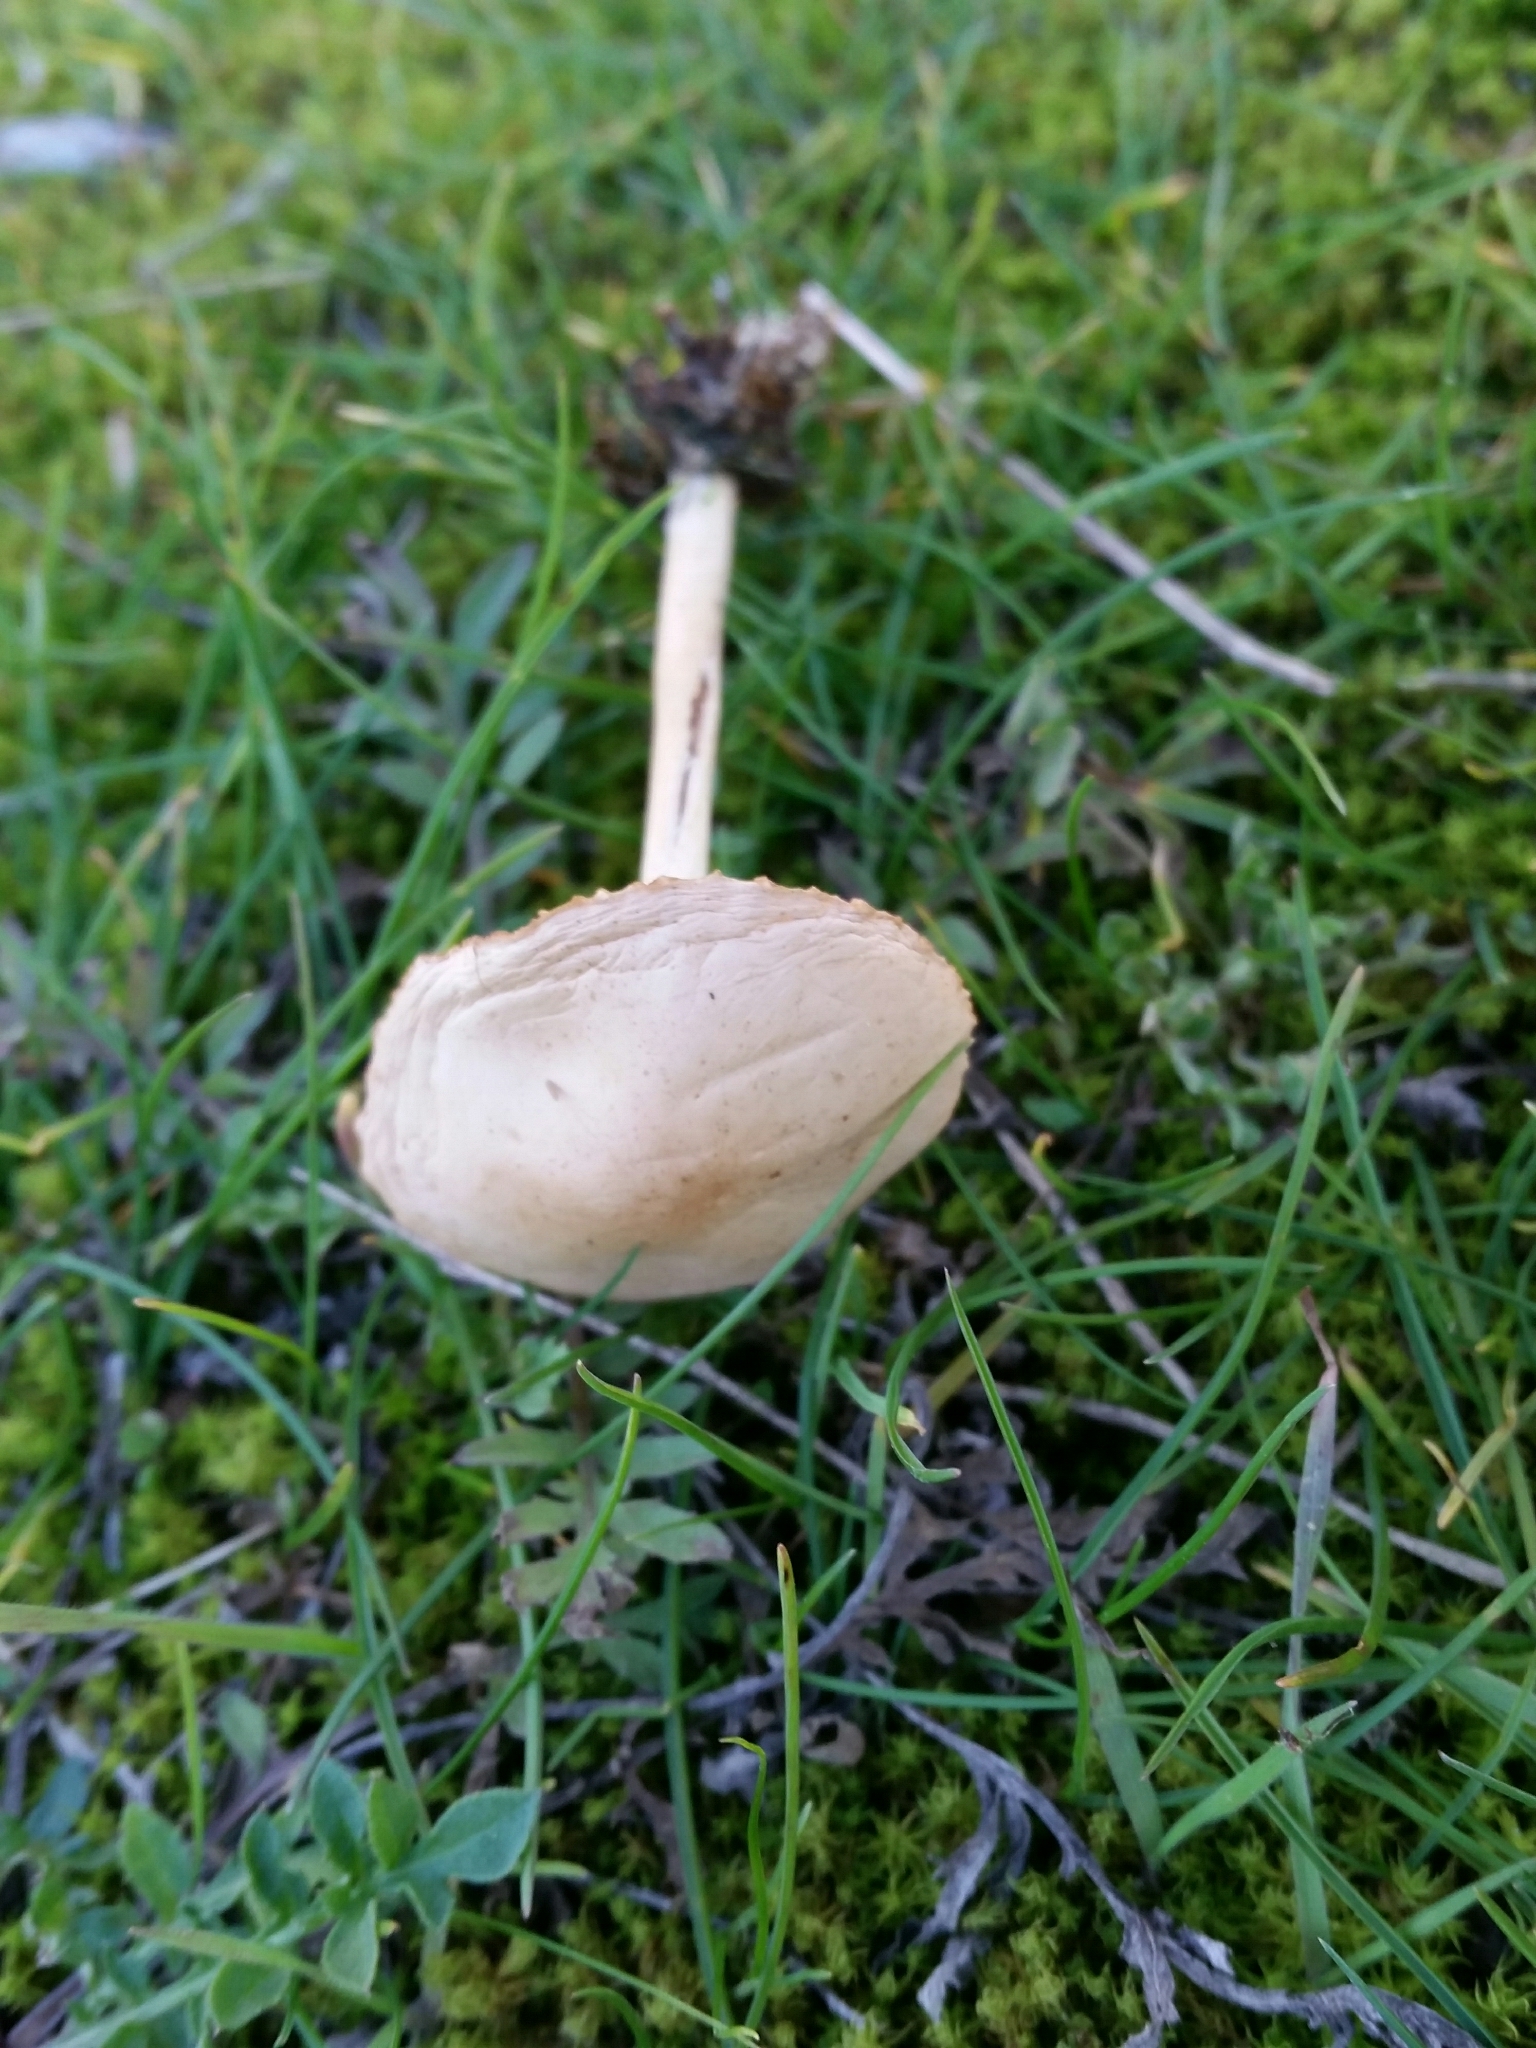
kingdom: Fungi
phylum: Basidiomycota
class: Agaricomycetes
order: Agaricales
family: Marasmiaceae
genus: Marasmius
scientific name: Marasmius oreades
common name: Fairy ring champignon
